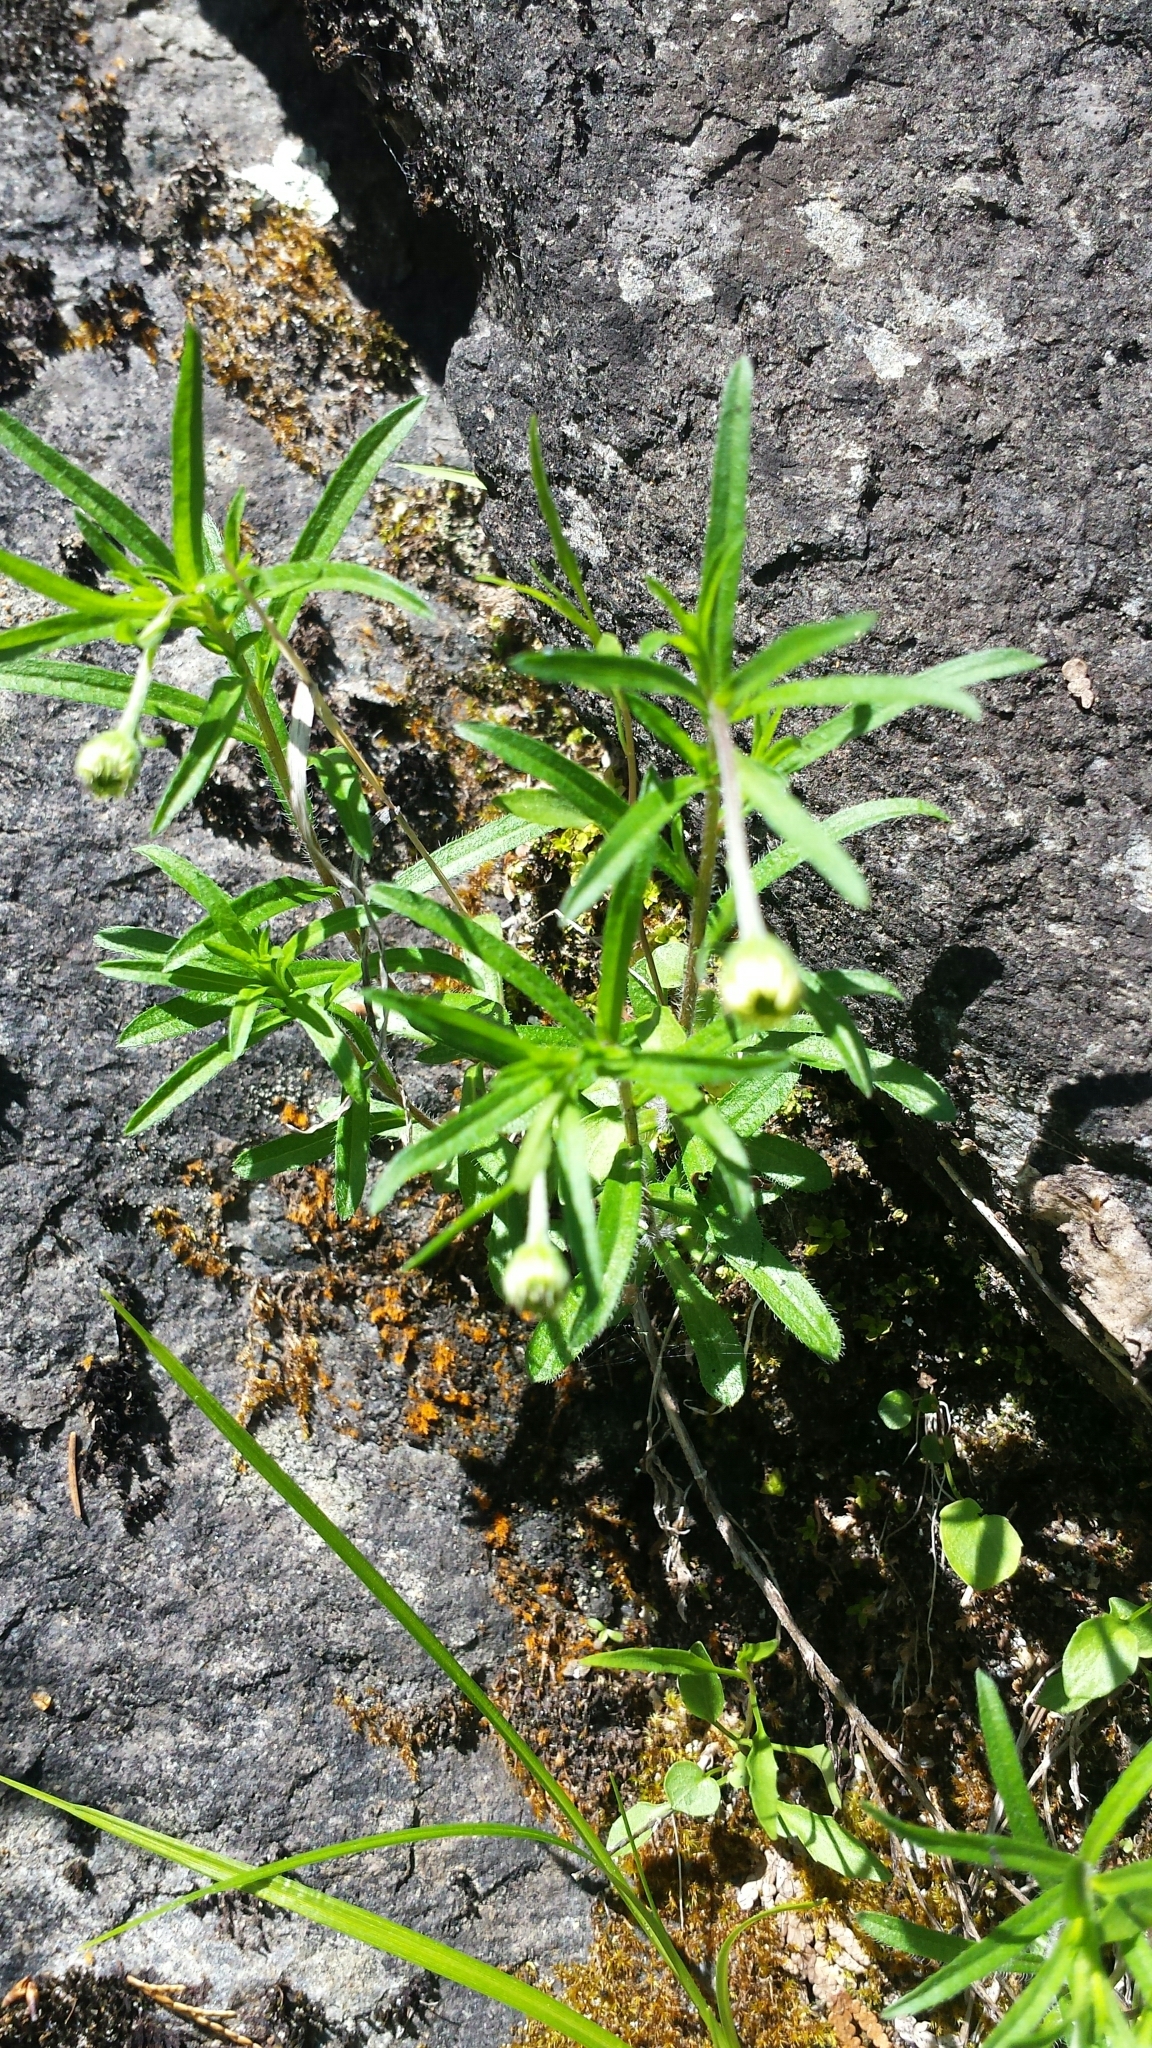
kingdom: Plantae
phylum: Tracheophyta
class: Magnoliopsida
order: Asterales
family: Asteraceae
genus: Erigeron
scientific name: Erigeron hyssopifolius
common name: Daisy fleabane
